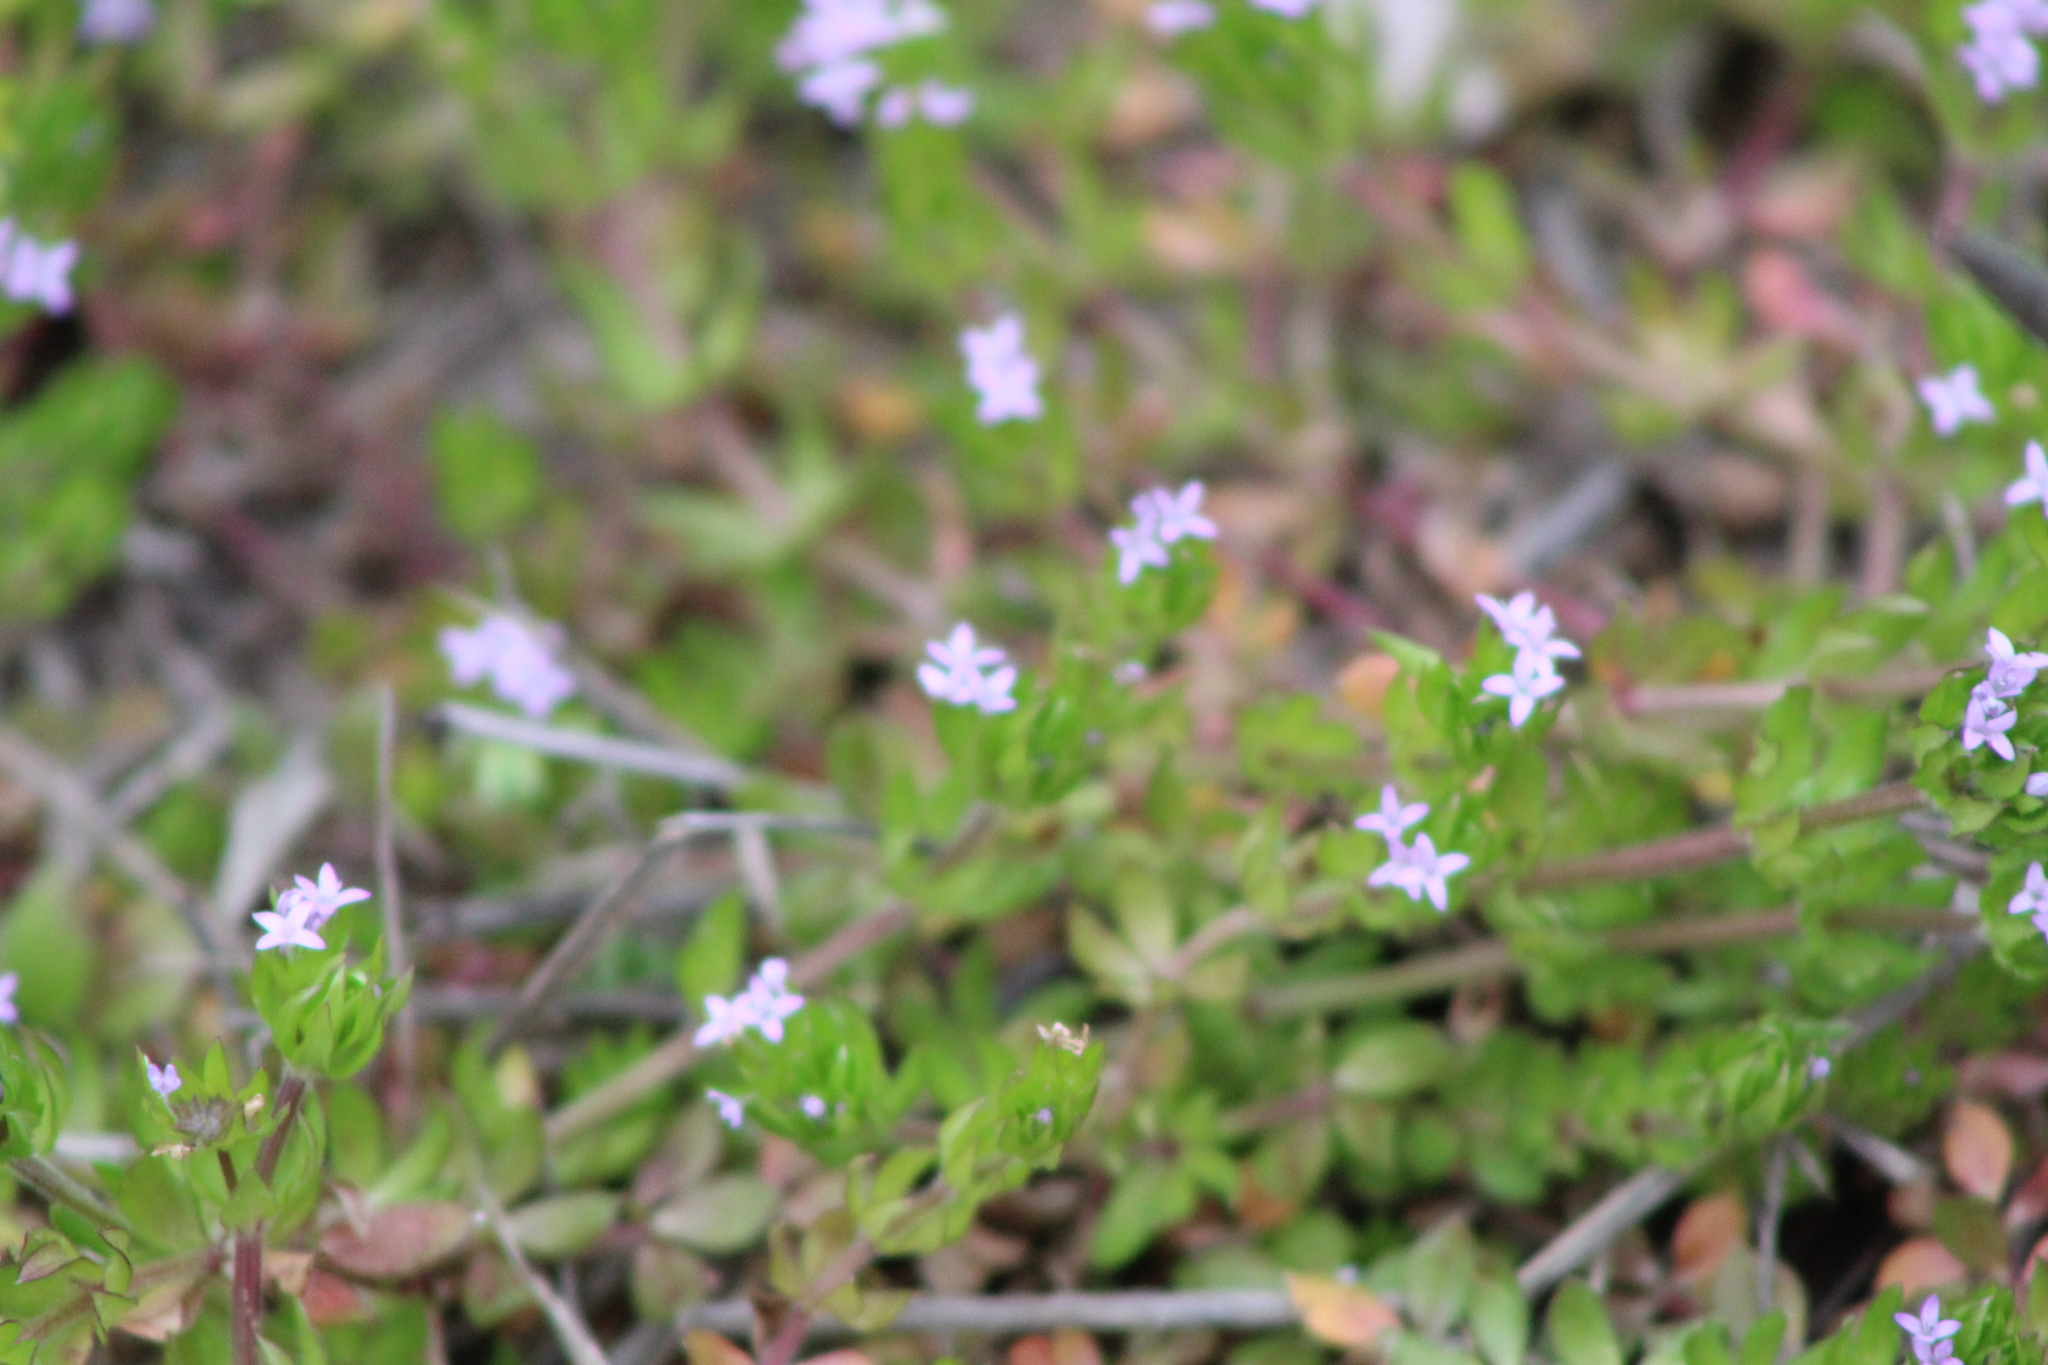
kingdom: Plantae
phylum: Tracheophyta
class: Magnoliopsida
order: Gentianales
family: Rubiaceae
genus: Sherardia
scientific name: Sherardia arvensis
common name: Field madder
